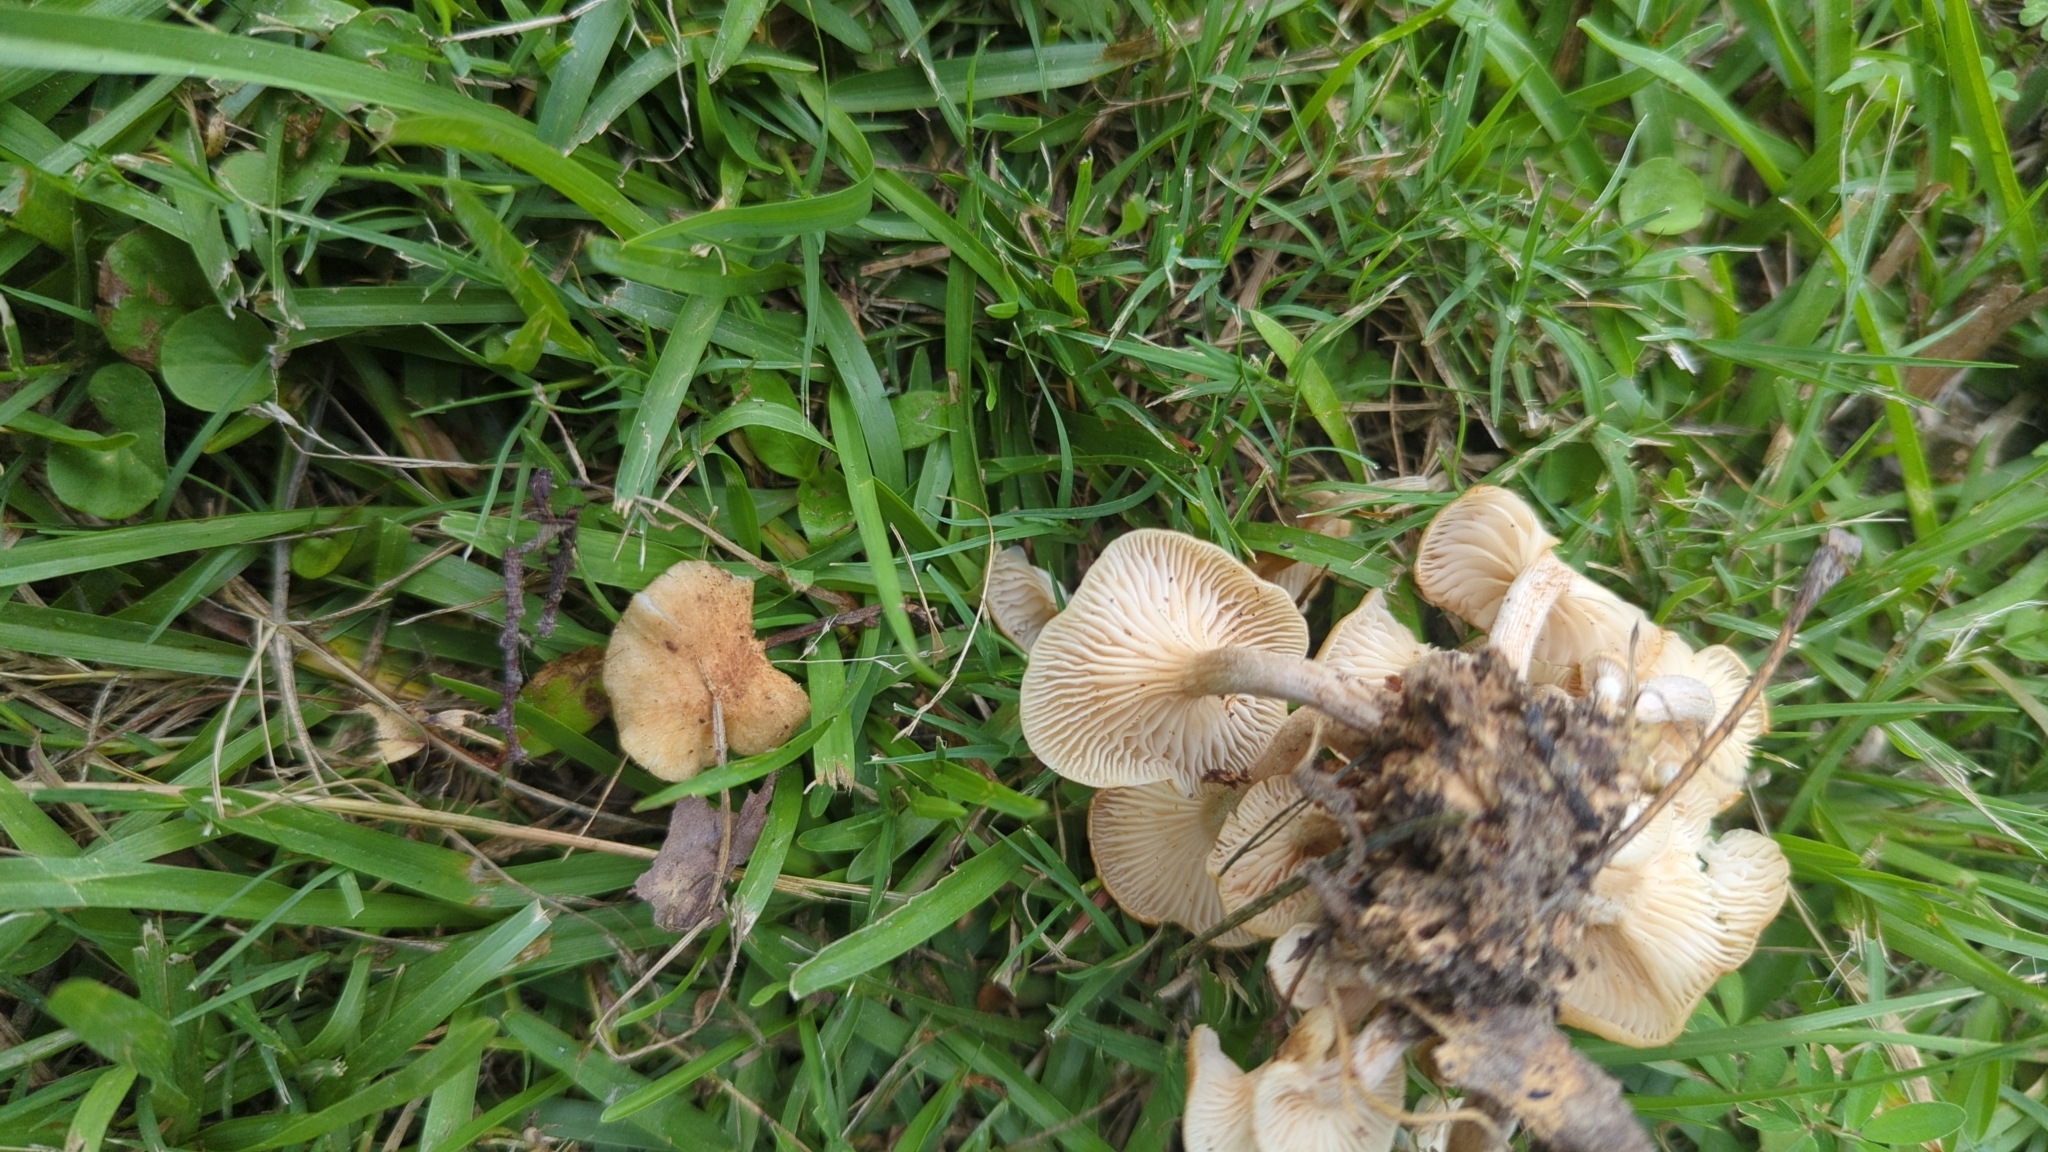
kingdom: Fungi
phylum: Basidiomycota
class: Agaricomycetes
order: Agaricales
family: Physalacriaceae
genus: Desarmillaria
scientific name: Desarmillaria caespitosa
